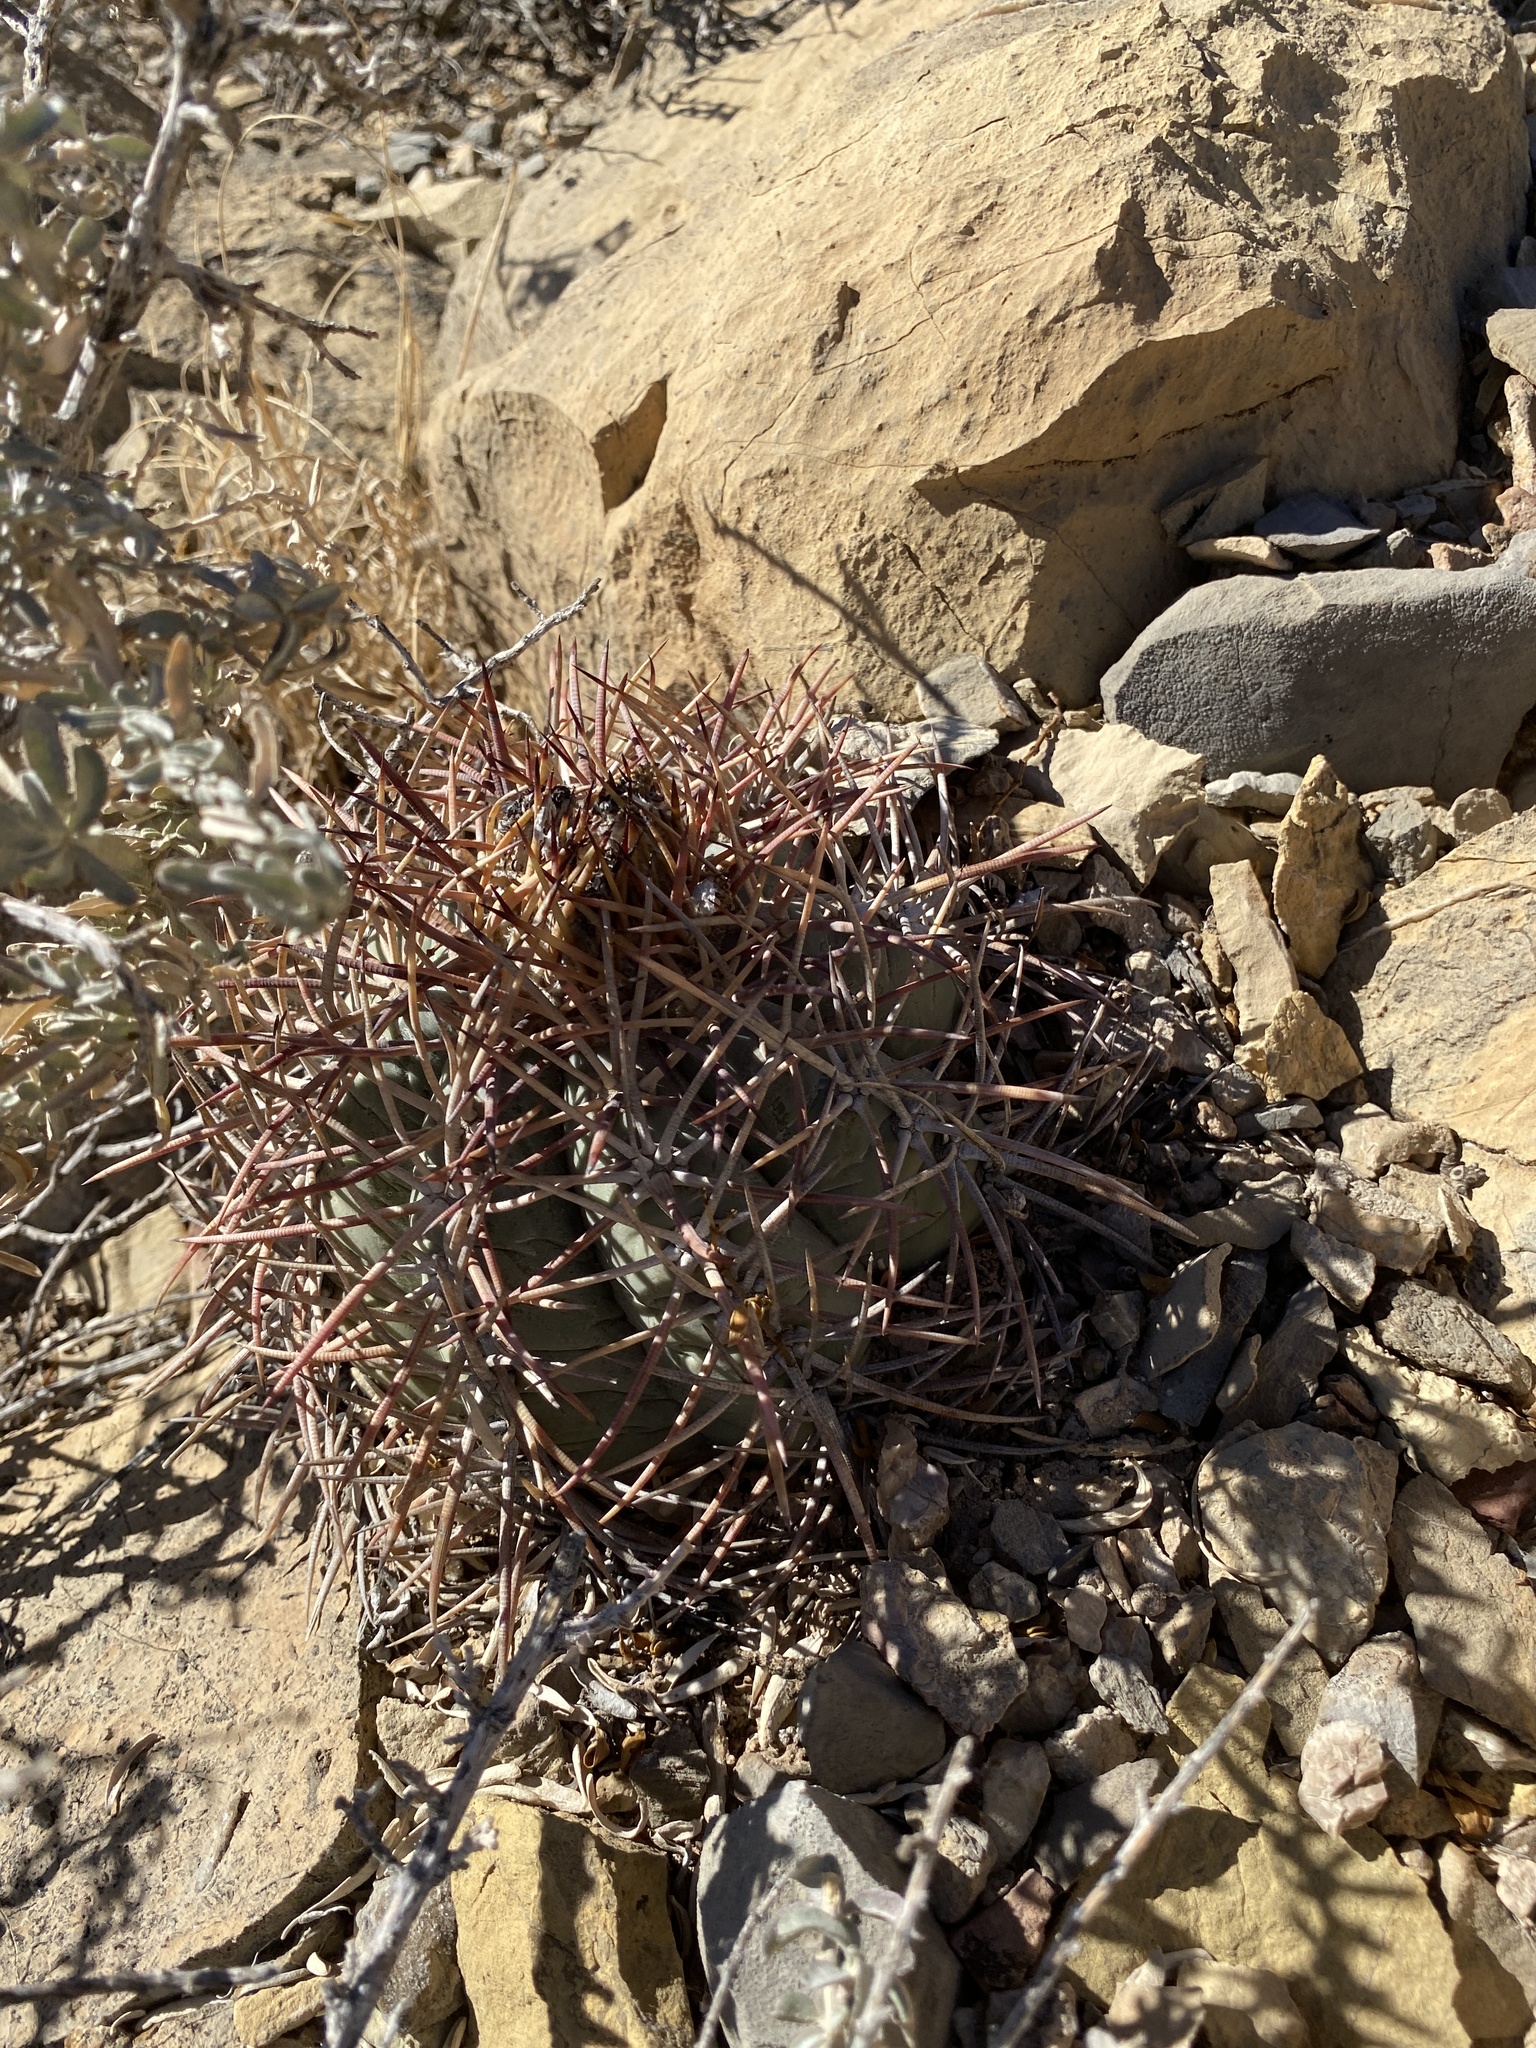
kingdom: Plantae
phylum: Tracheophyta
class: Magnoliopsida
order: Caryophyllales
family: Cactaceae
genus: Echinocactus
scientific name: Echinocactus horizonthalonius
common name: Devilshead
